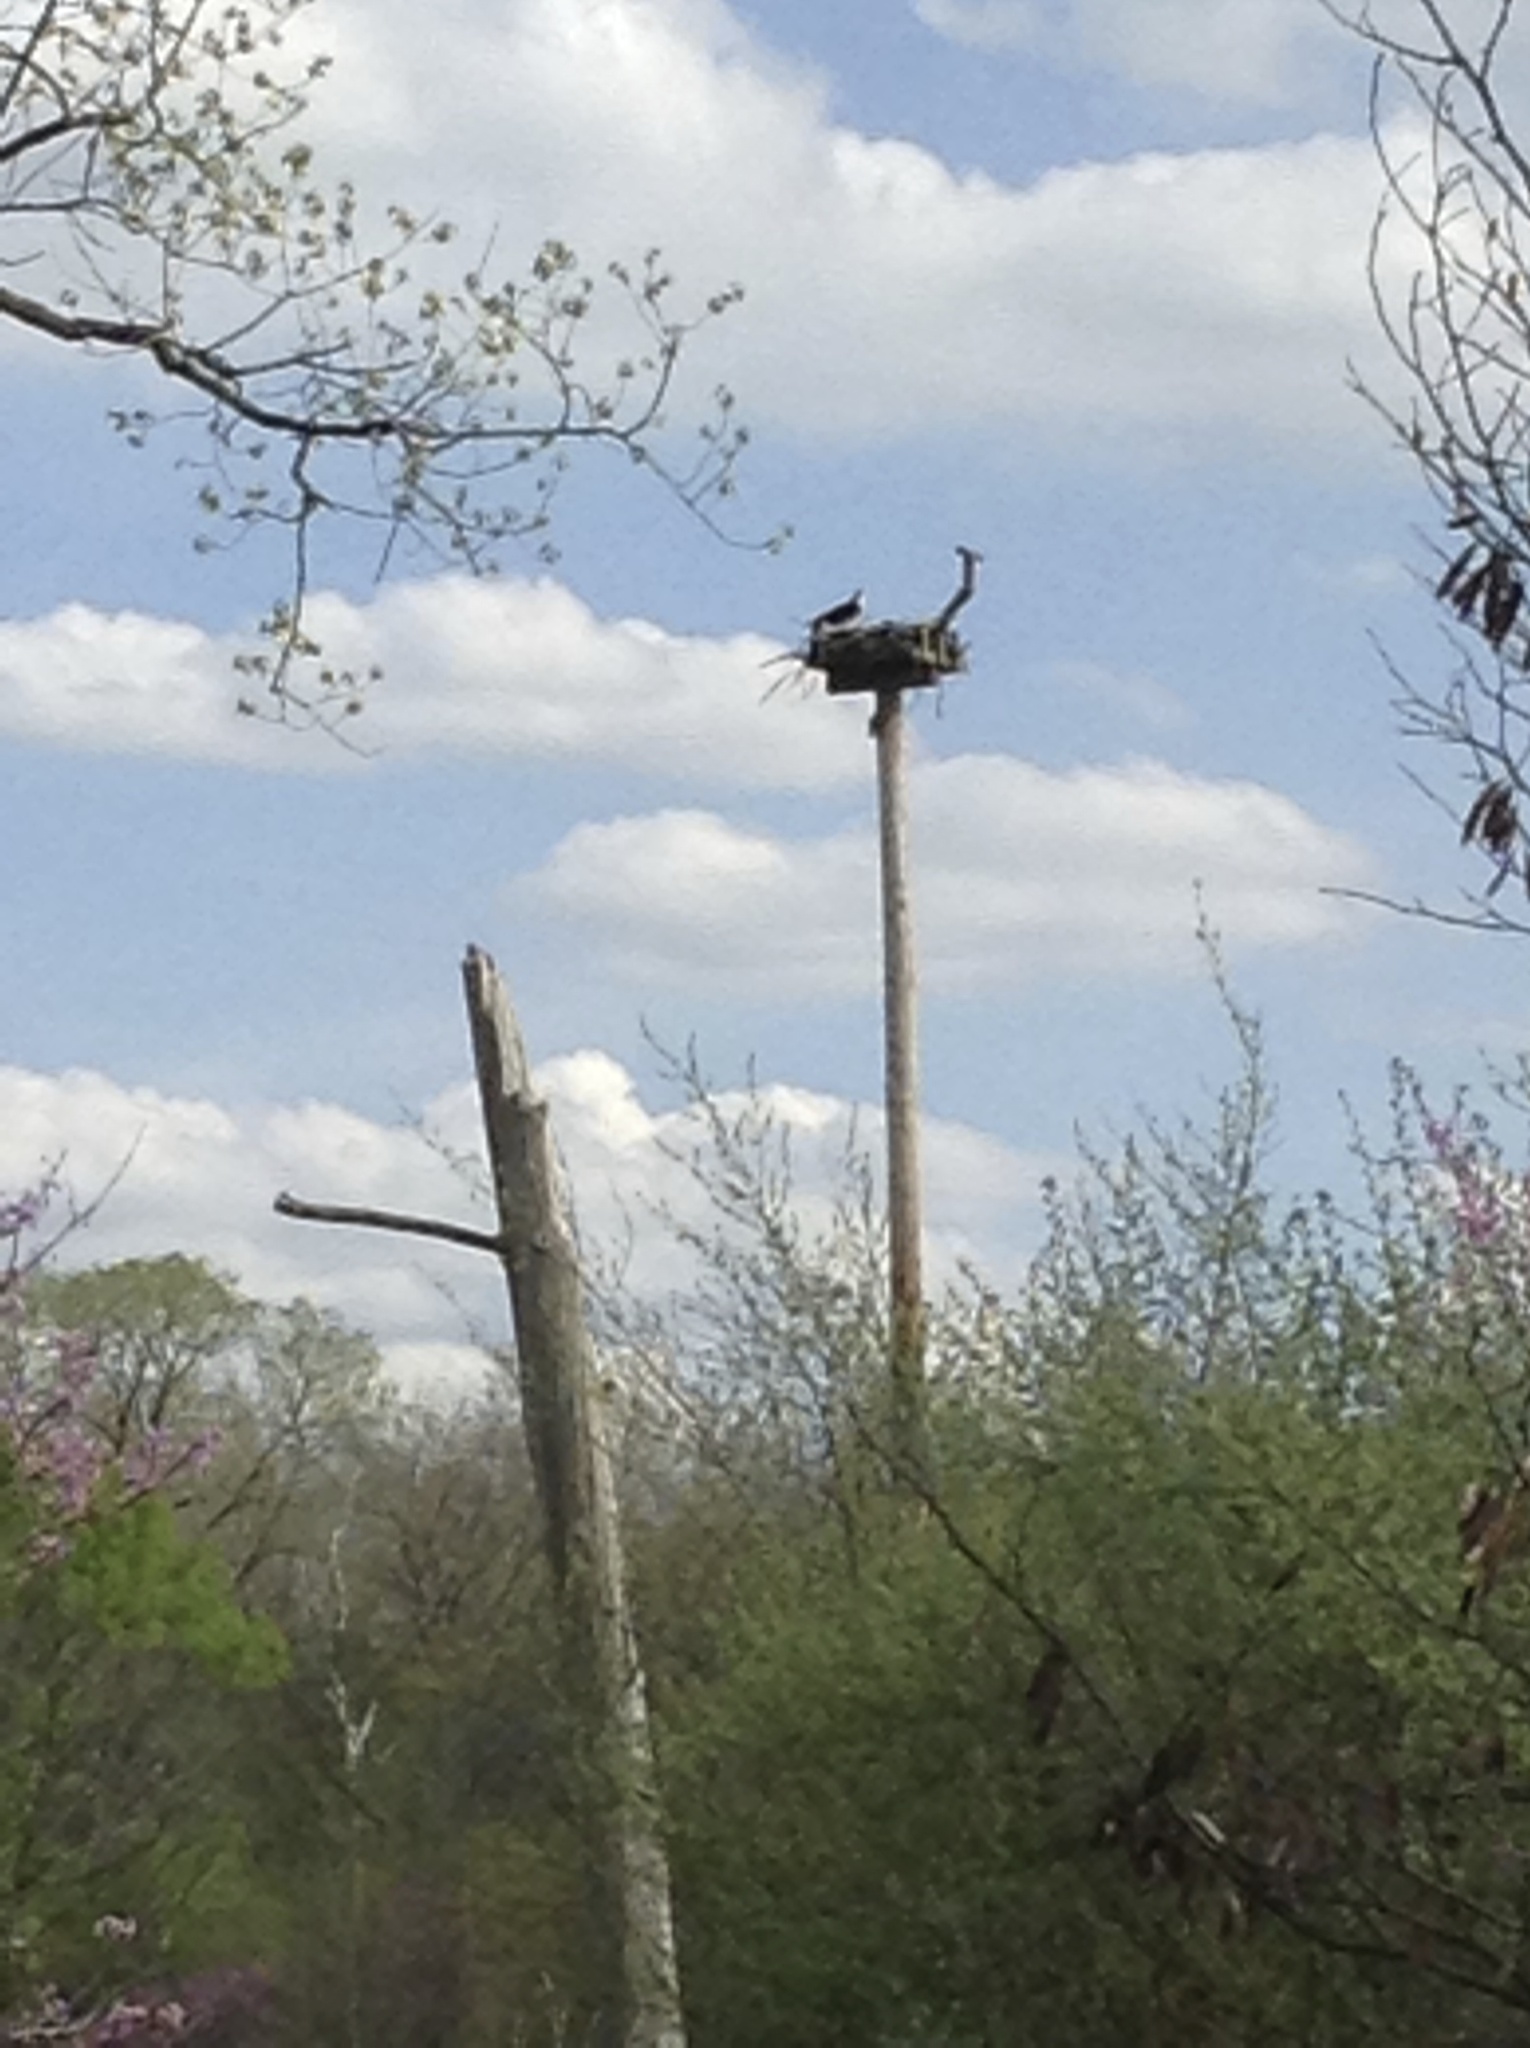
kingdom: Animalia
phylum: Chordata
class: Aves
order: Accipitriformes
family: Pandionidae
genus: Pandion
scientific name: Pandion haliaetus
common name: Osprey
